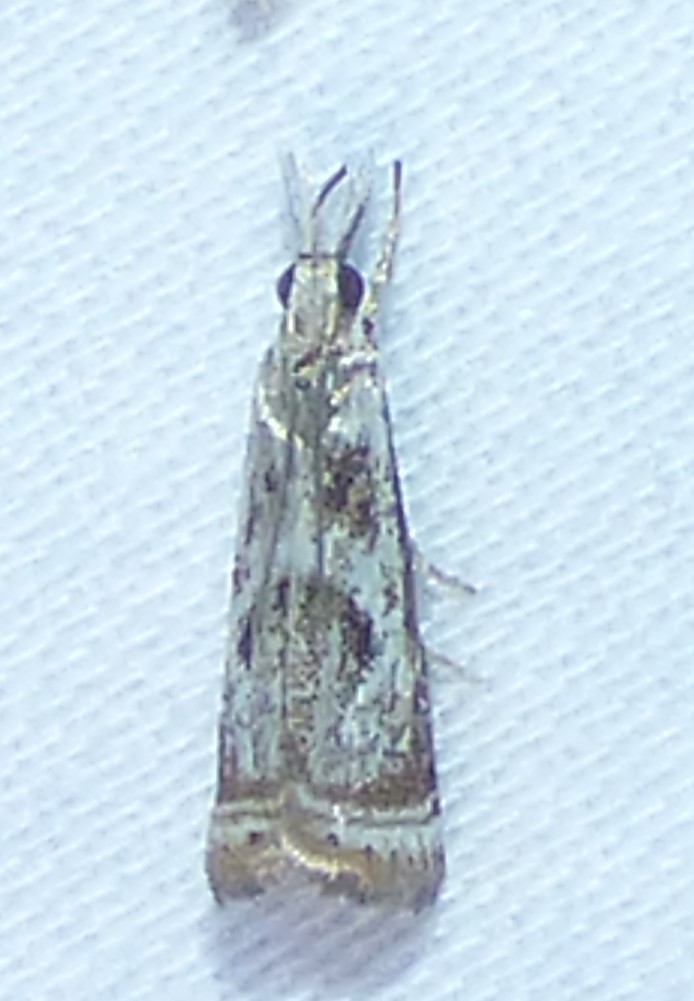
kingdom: Animalia
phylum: Arthropoda
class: Insecta
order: Lepidoptera
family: Crambidae
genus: Microcrambus
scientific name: Microcrambus elegans
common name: Elegant grass-veneer
